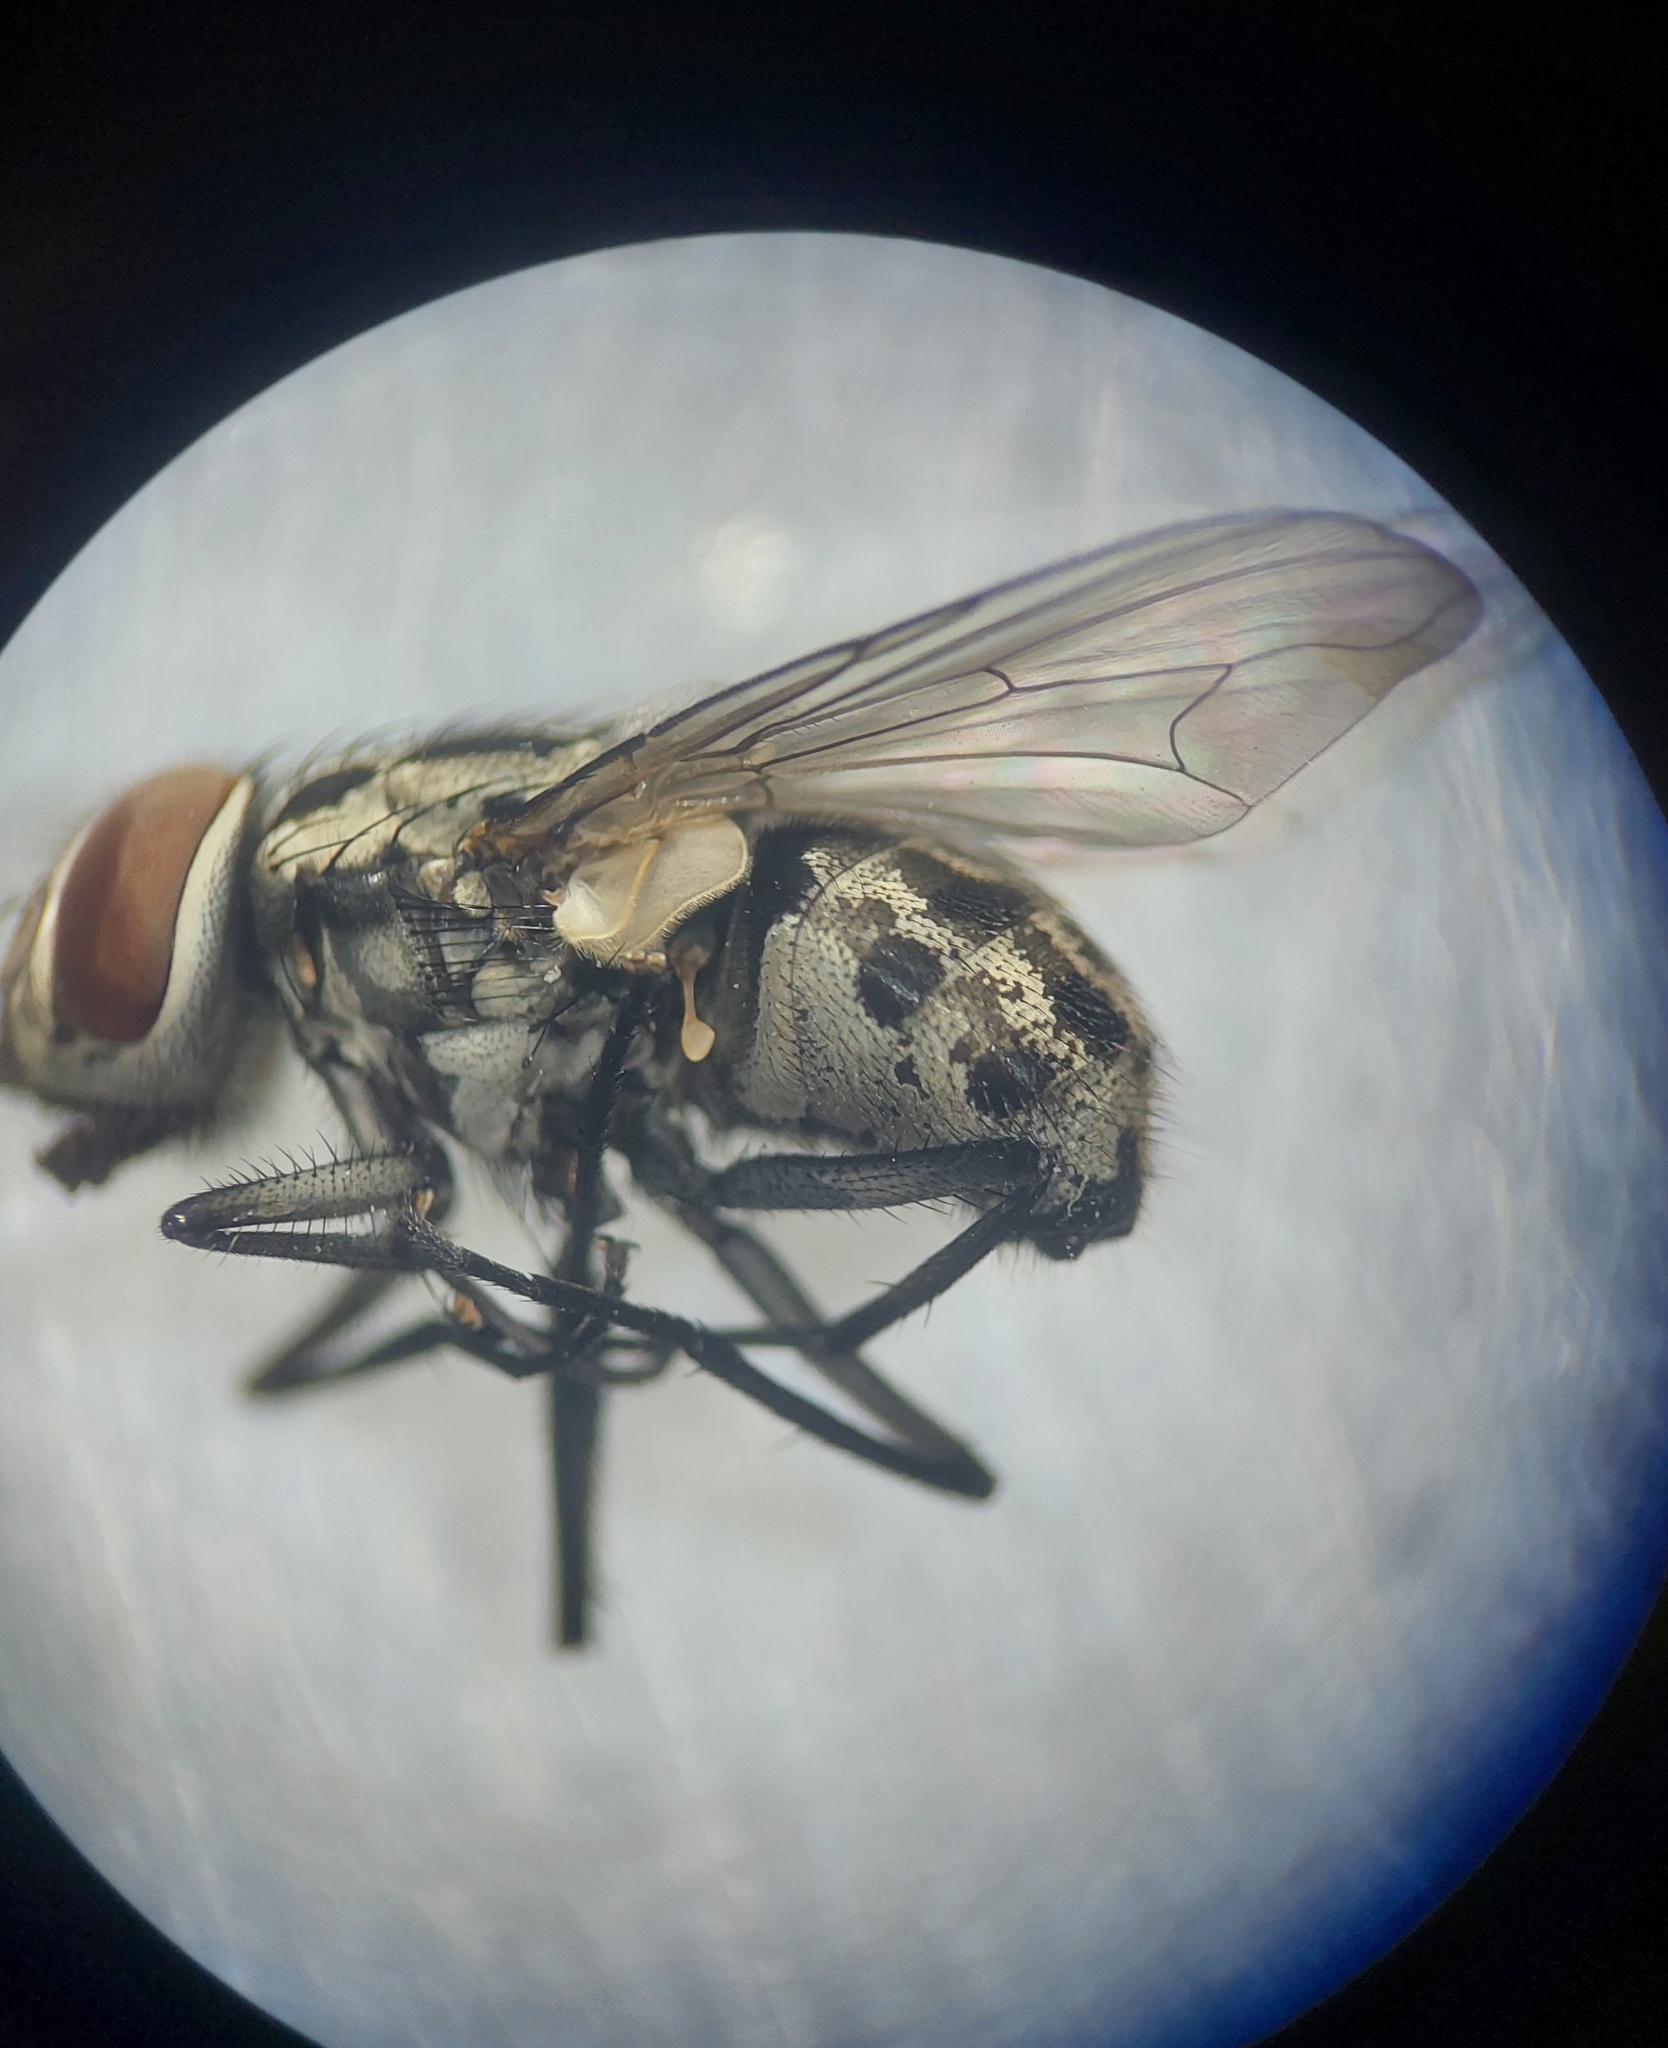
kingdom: Animalia
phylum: Arthropoda
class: Insecta
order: Diptera
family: Muscidae
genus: Graphomya
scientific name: Graphomya maculata
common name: Muscid fly
